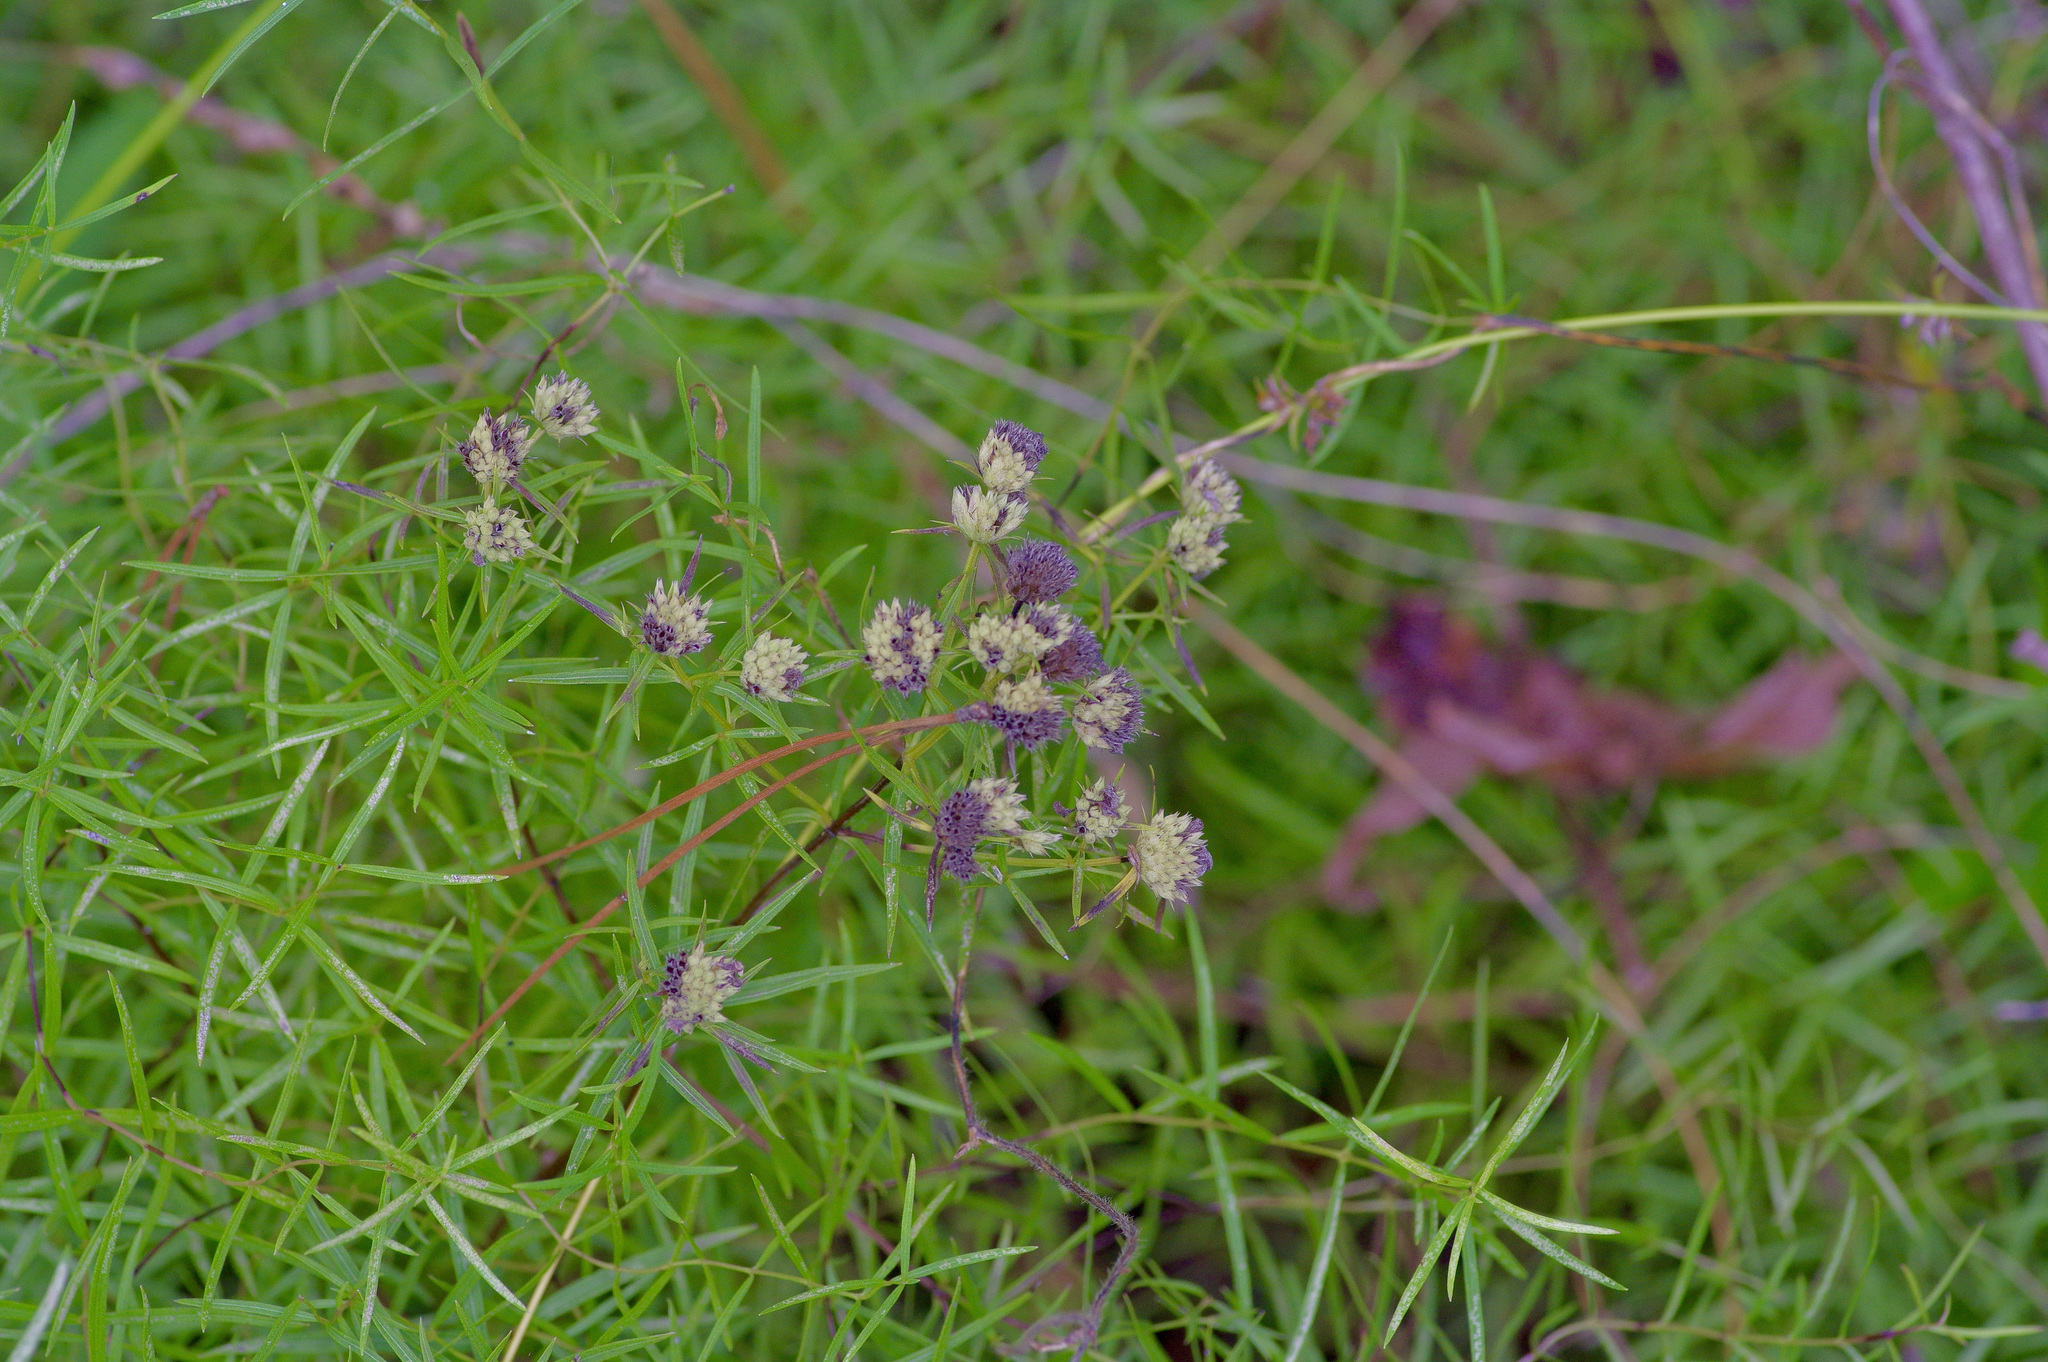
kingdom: Plantae
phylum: Tracheophyta
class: Magnoliopsida
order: Lamiales
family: Lamiaceae
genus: Pycnanthemum
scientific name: Pycnanthemum tenuifolium
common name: Narrow-leaf mountain-mint
